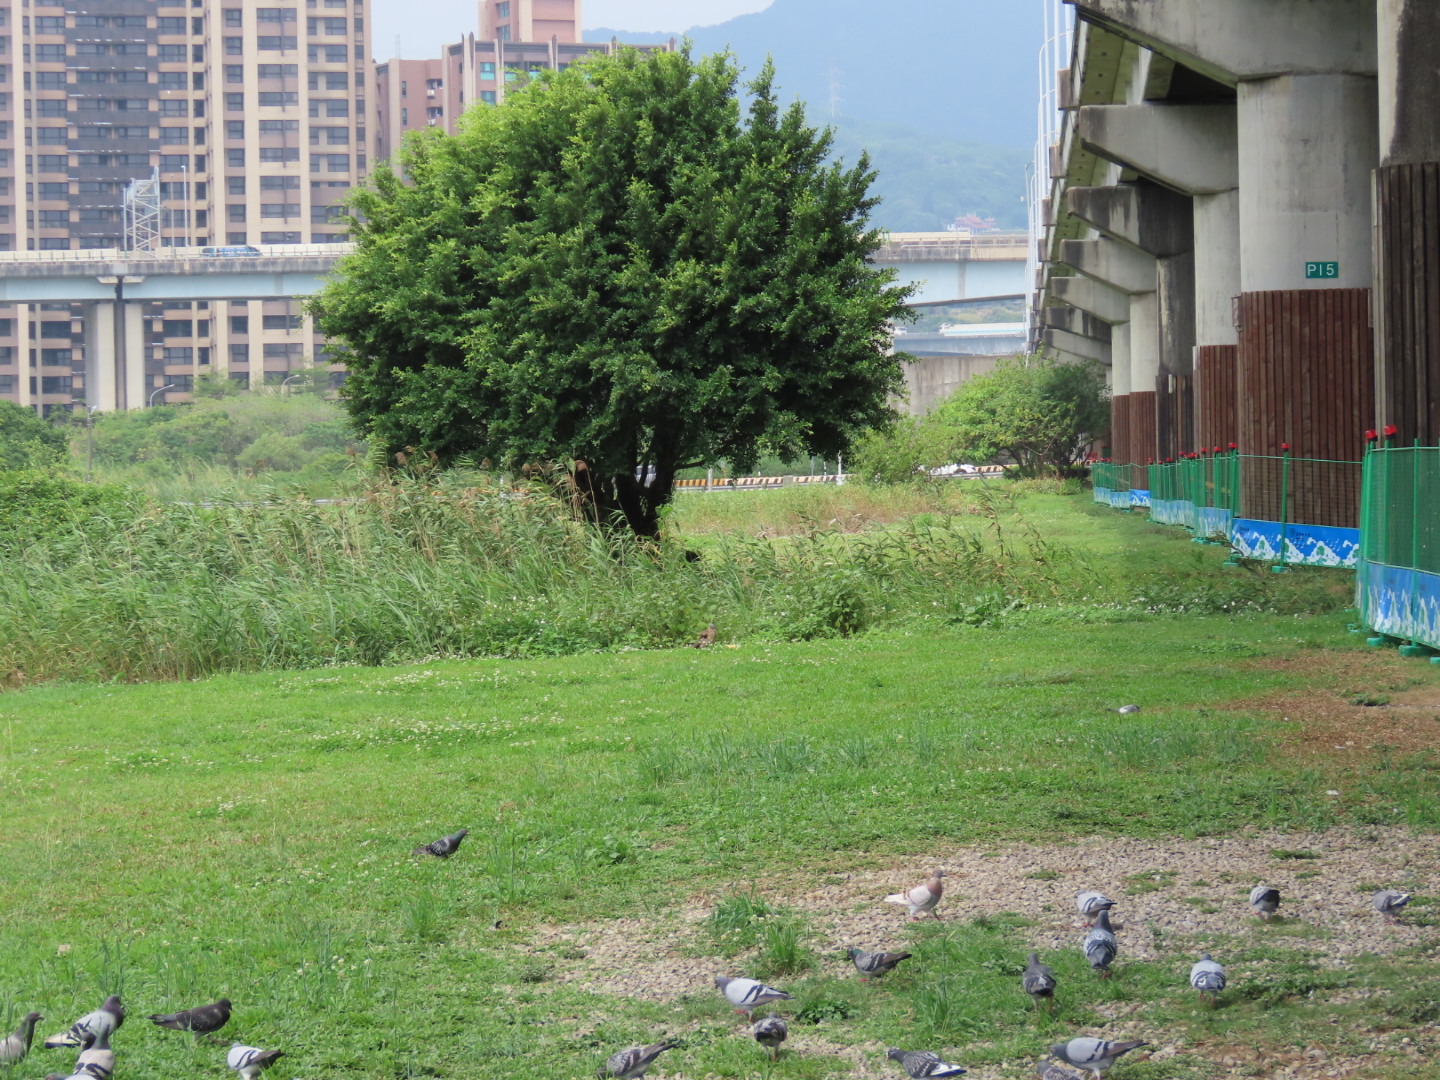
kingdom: Animalia
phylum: Chordata
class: Aves
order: Pelecaniformes
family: Ardeidae
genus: Gorsachius
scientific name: Gorsachius melanolophus
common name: Malayan night heron
